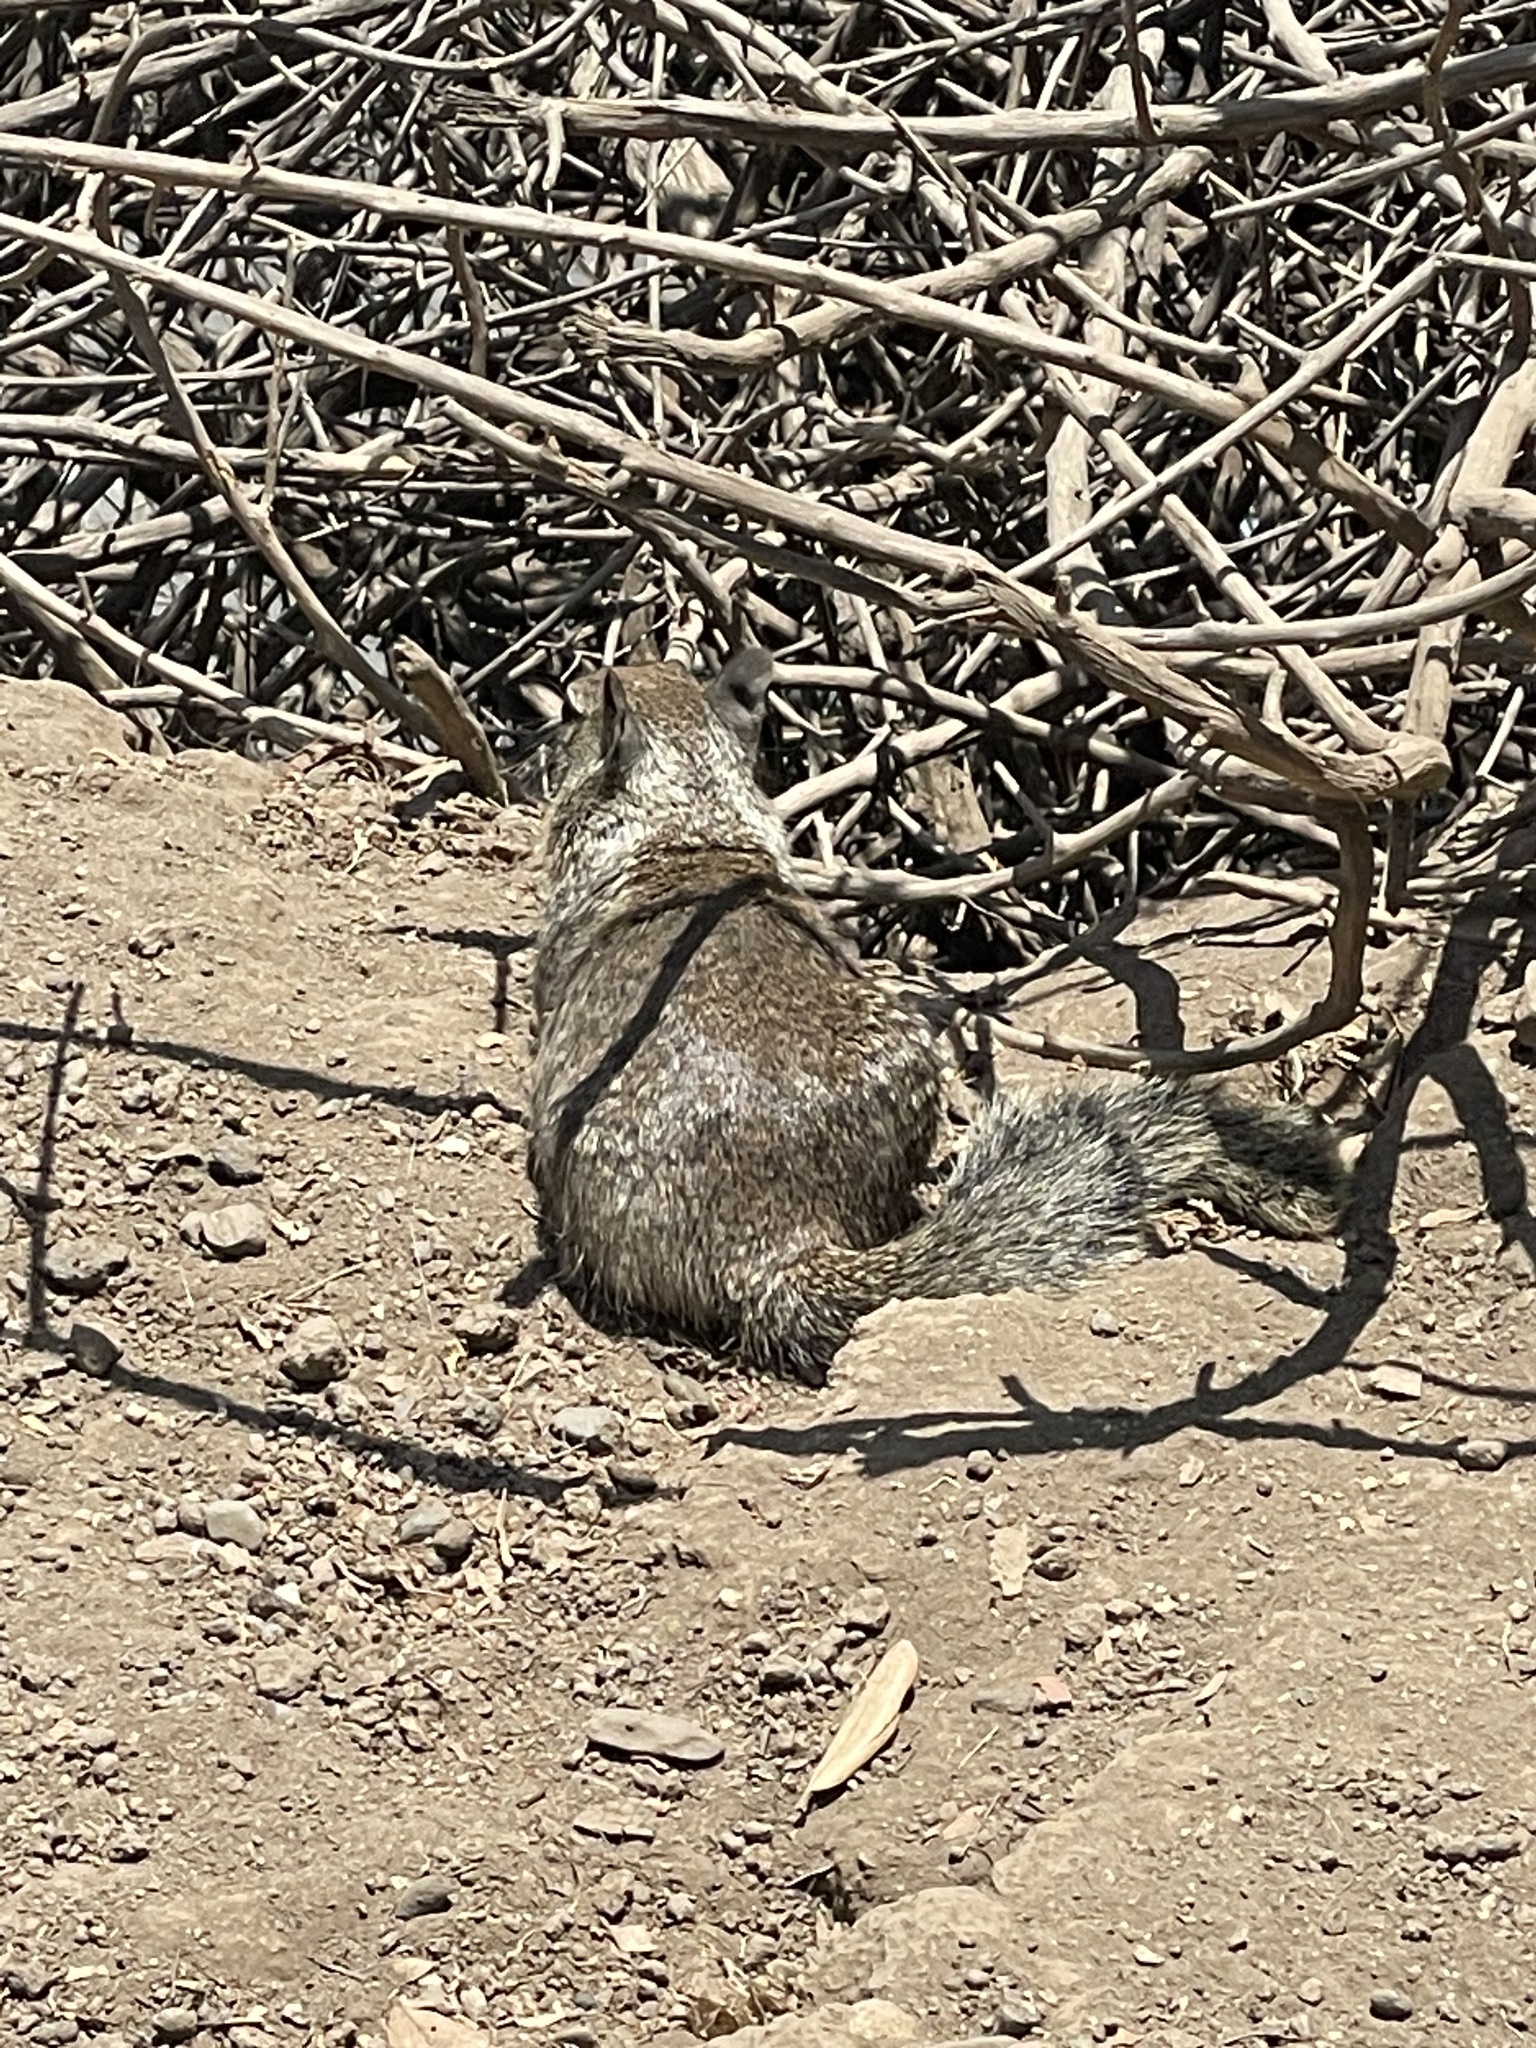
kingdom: Animalia
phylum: Chordata
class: Mammalia
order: Rodentia
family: Sciuridae
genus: Otospermophilus
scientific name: Otospermophilus beecheyi
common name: California ground squirrel
